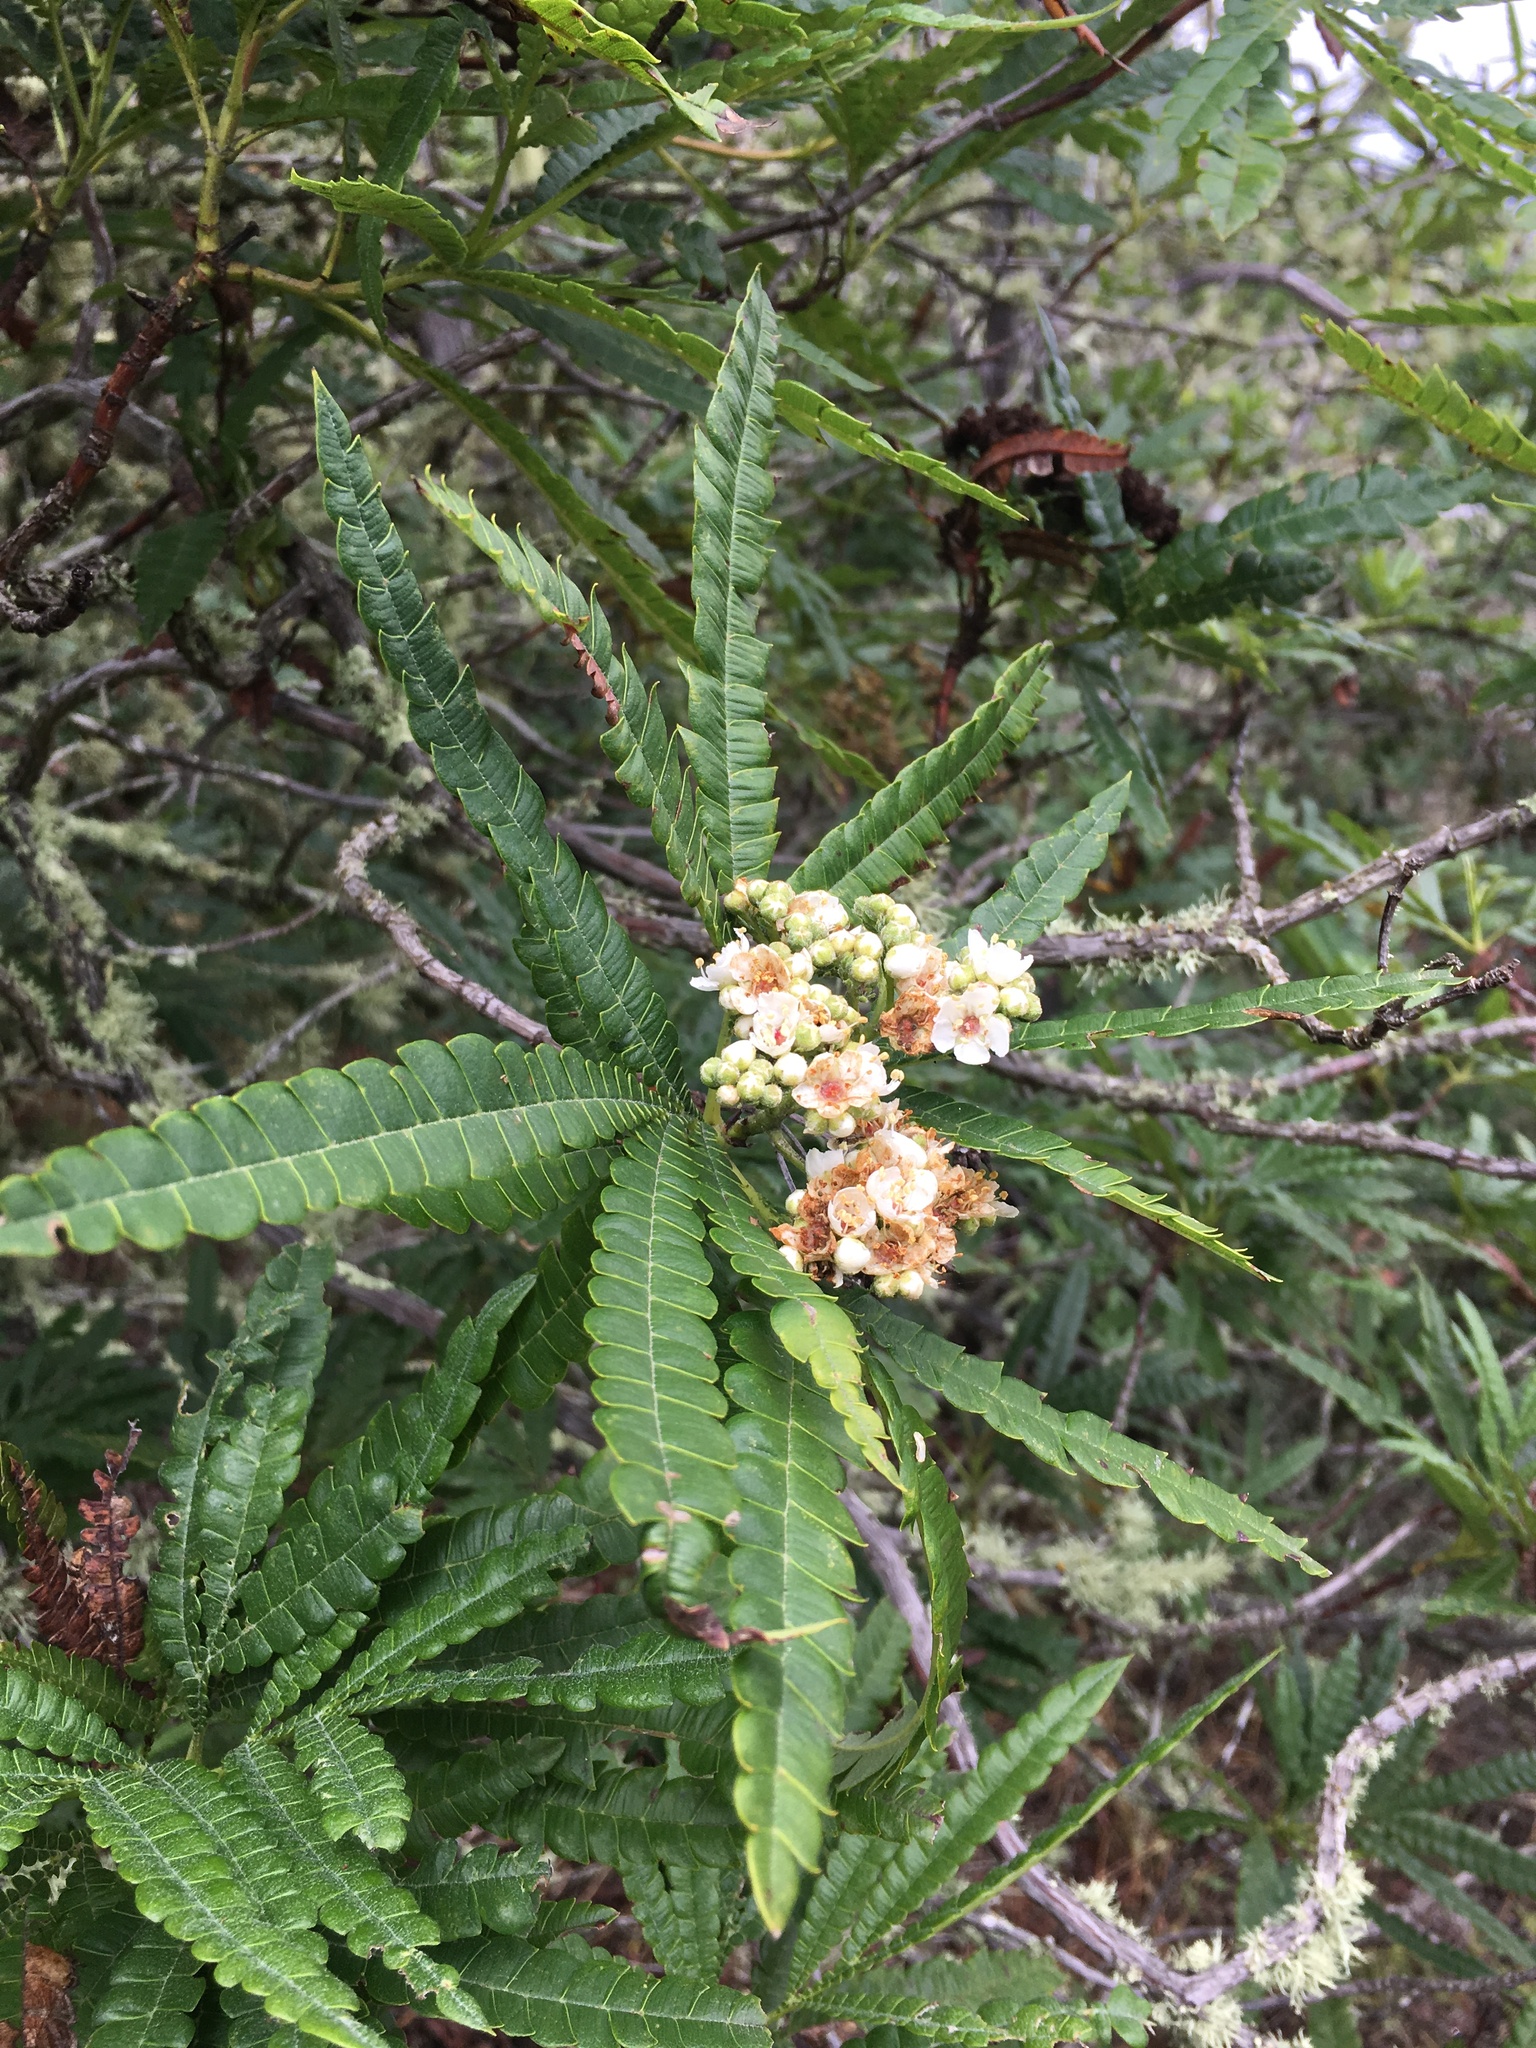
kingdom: Plantae
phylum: Tracheophyta
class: Magnoliopsida
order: Rosales
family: Rosaceae
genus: Lyonothamnus
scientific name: Lyonothamnus floribundus
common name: Catalina ironwood
